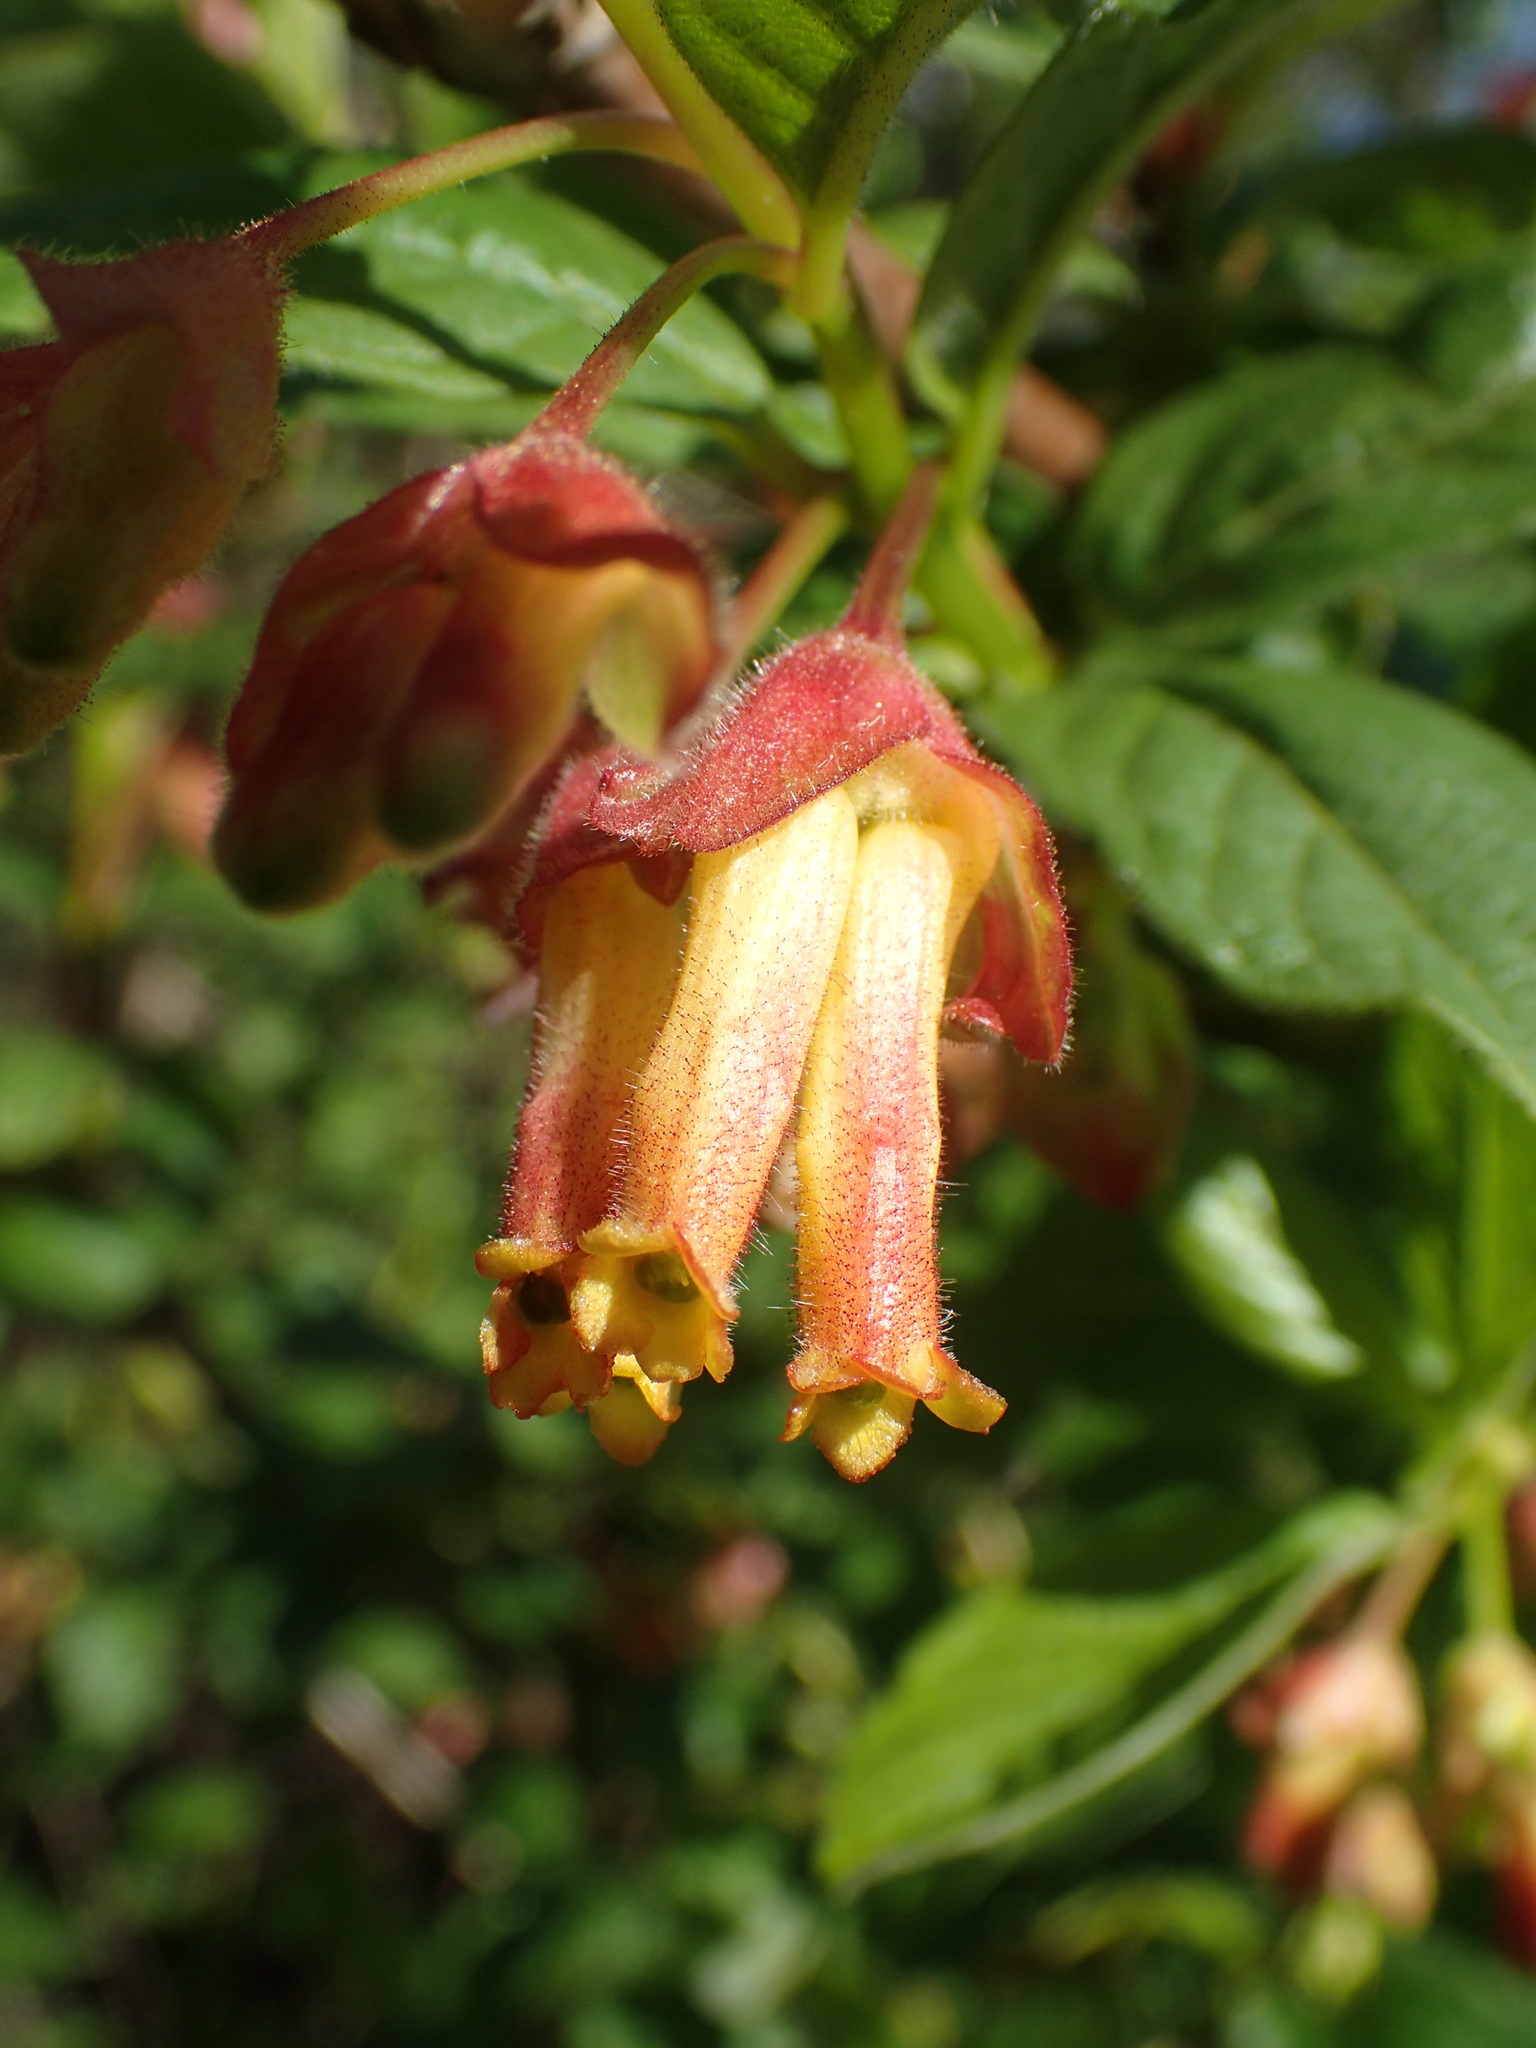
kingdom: Plantae
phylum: Tracheophyta
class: Magnoliopsida
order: Dipsacales
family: Caprifoliaceae
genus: Lonicera
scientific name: Lonicera involucrata
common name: Californian honeysuckle
